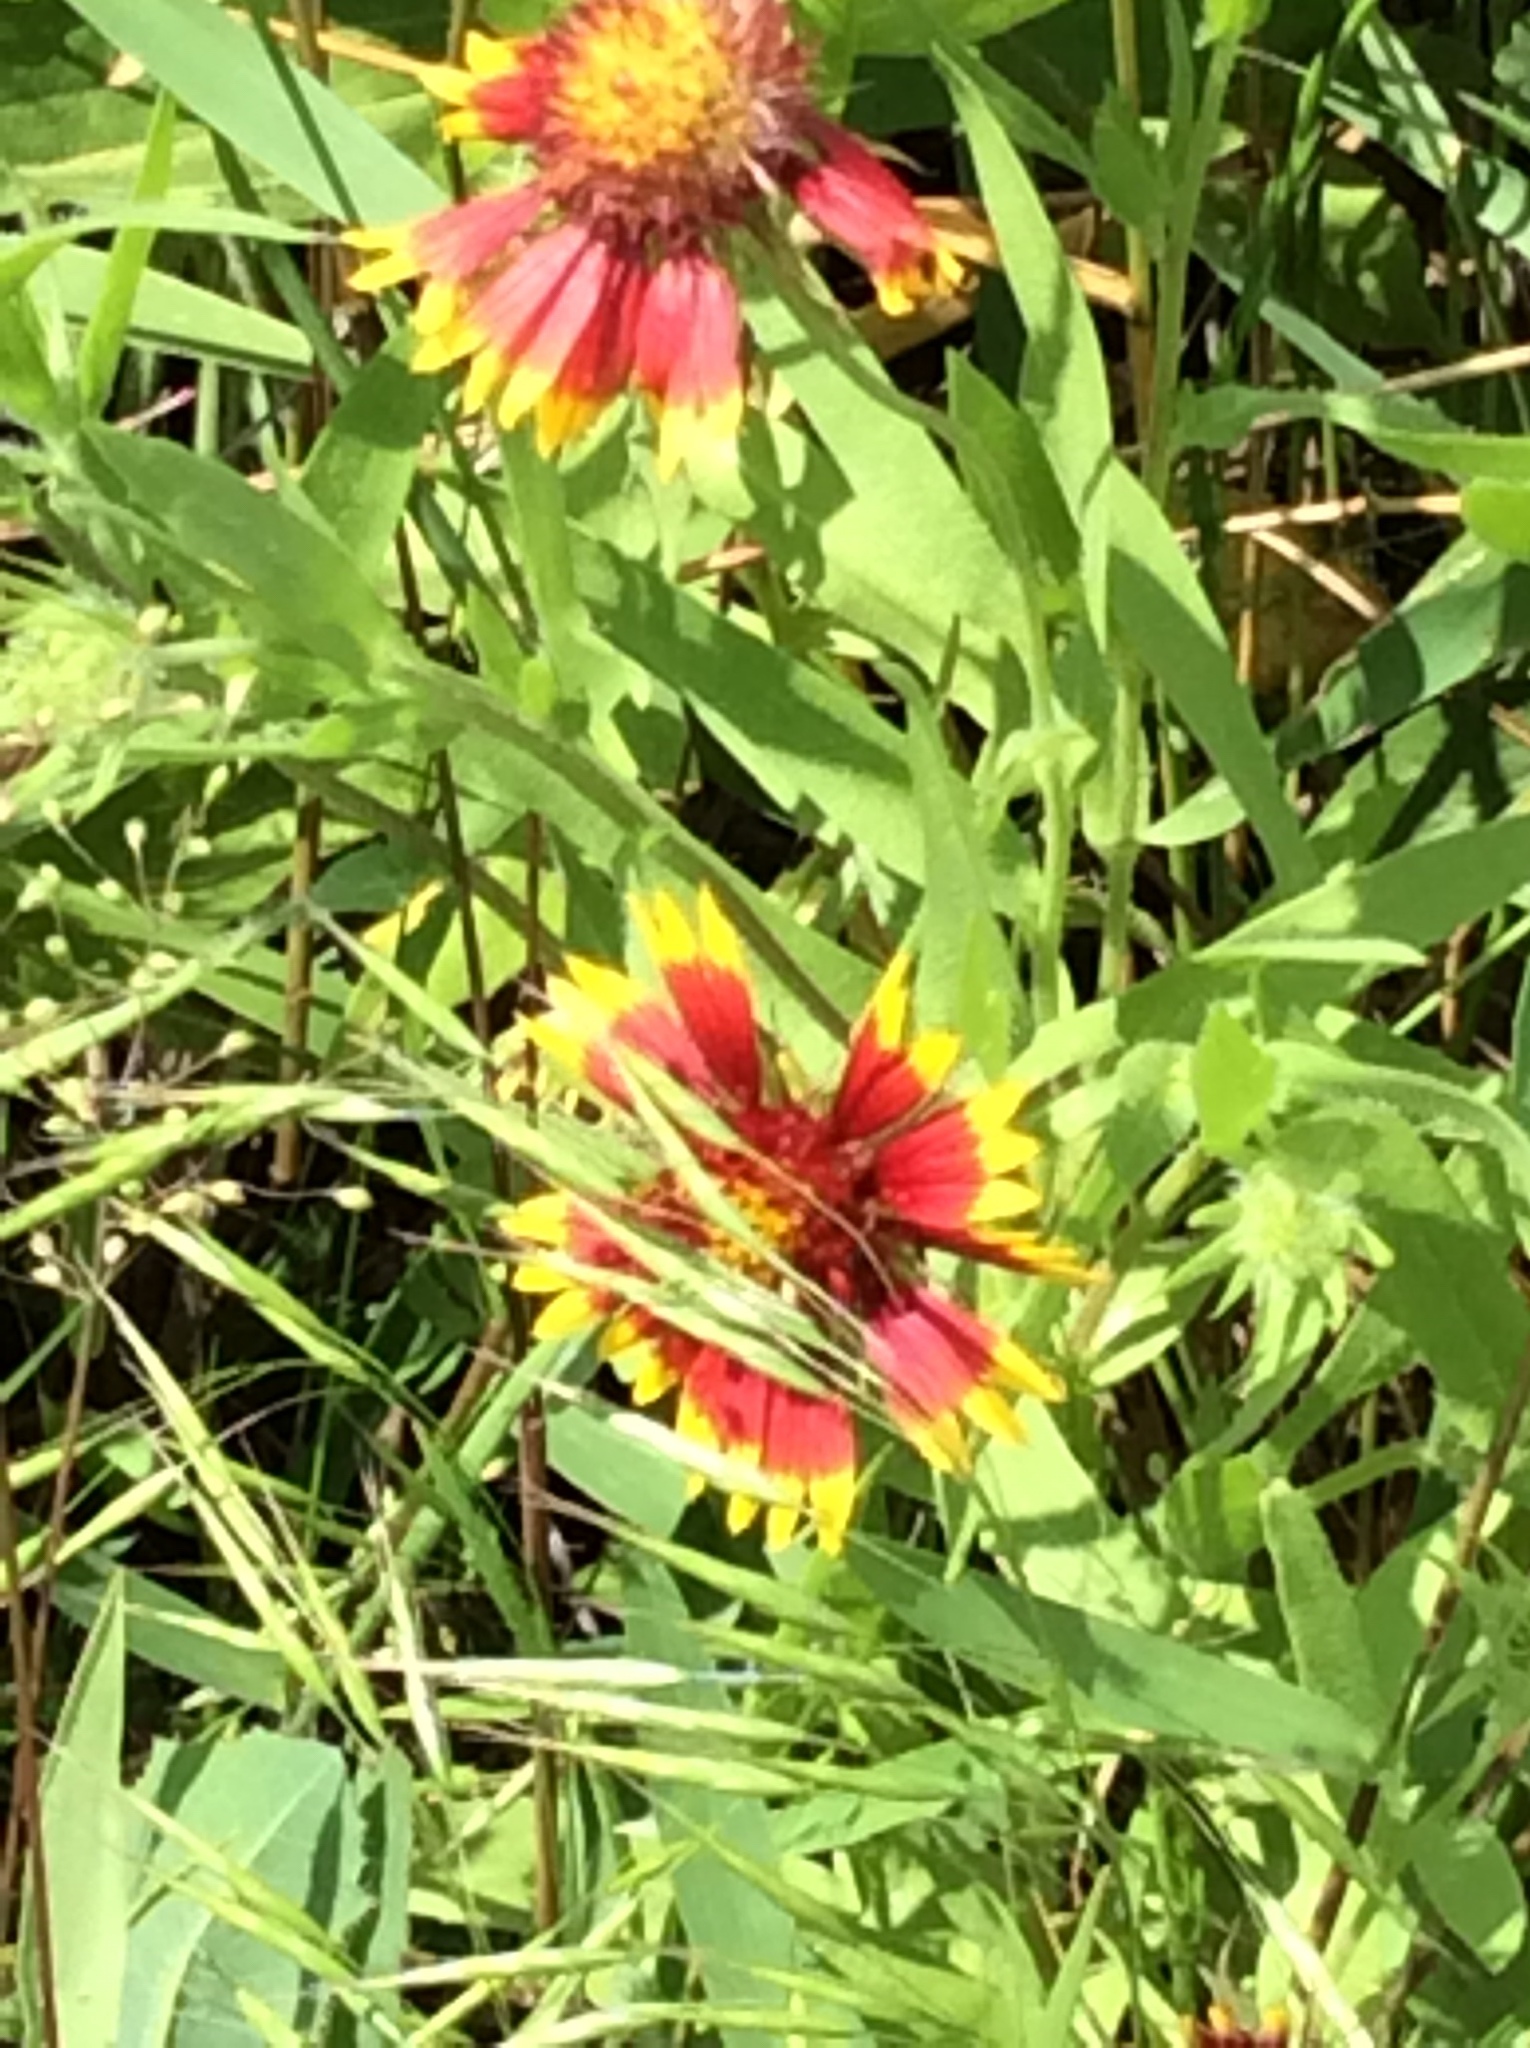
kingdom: Plantae
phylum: Tracheophyta
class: Magnoliopsida
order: Asterales
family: Asteraceae
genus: Gaillardia
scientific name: Gaillardia pulchella
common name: Firewheel
